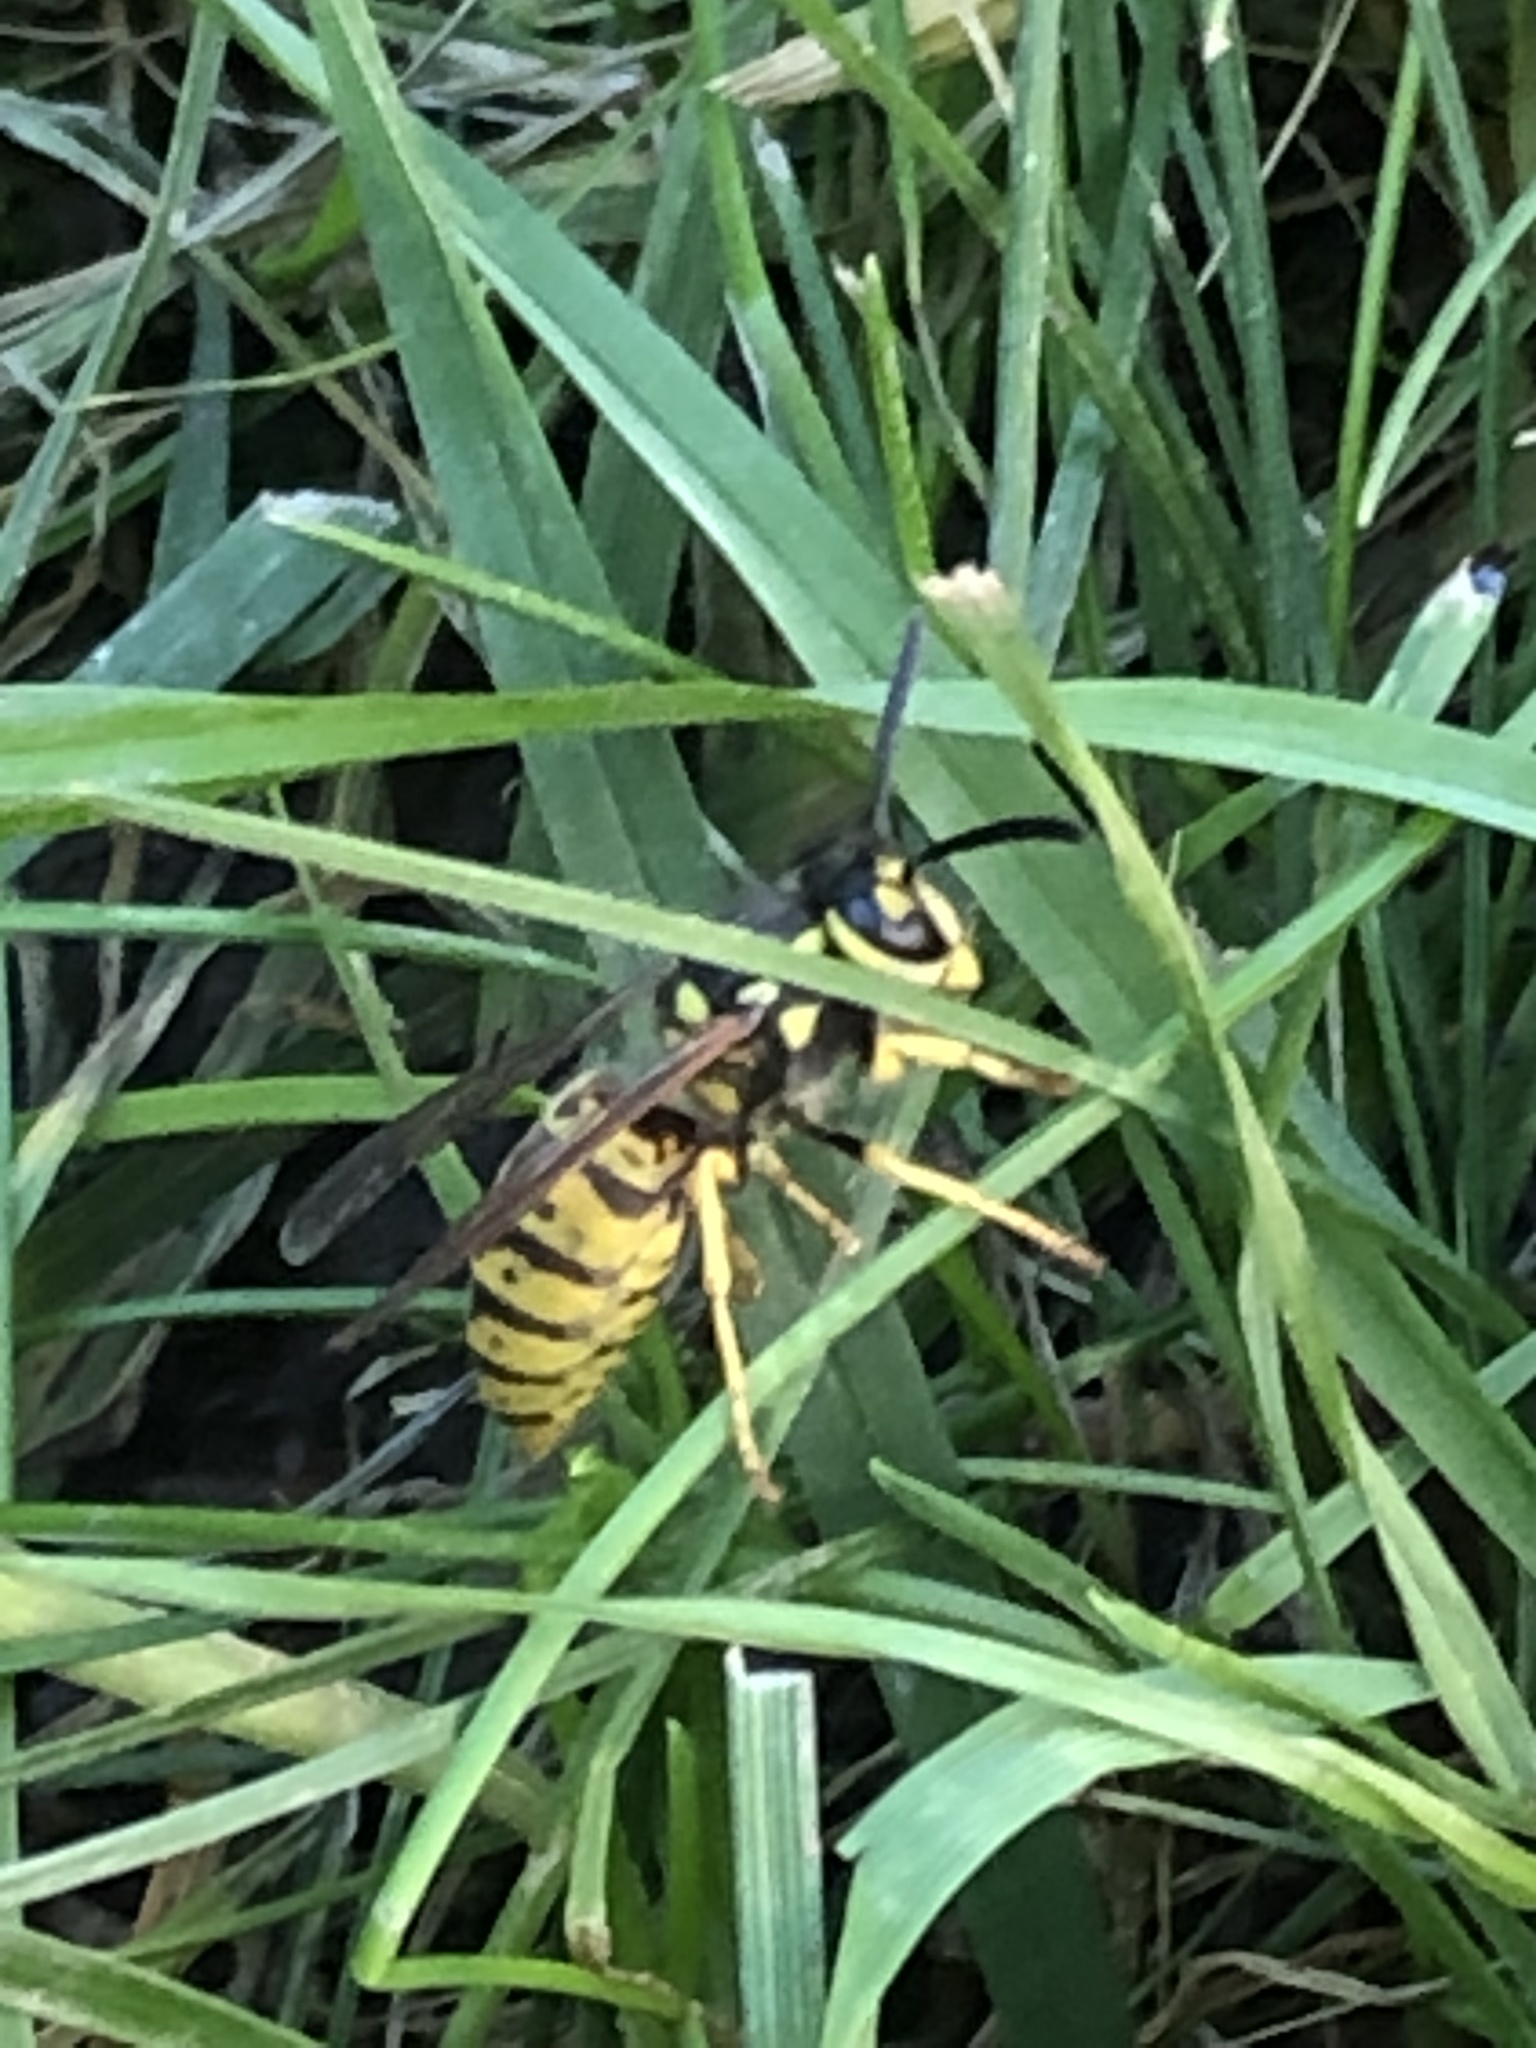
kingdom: Animalia
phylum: Arthropoda
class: Insecta
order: Hymenoptera
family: Vespidae
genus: Vespula
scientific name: Vespula germanica
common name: German wasp
